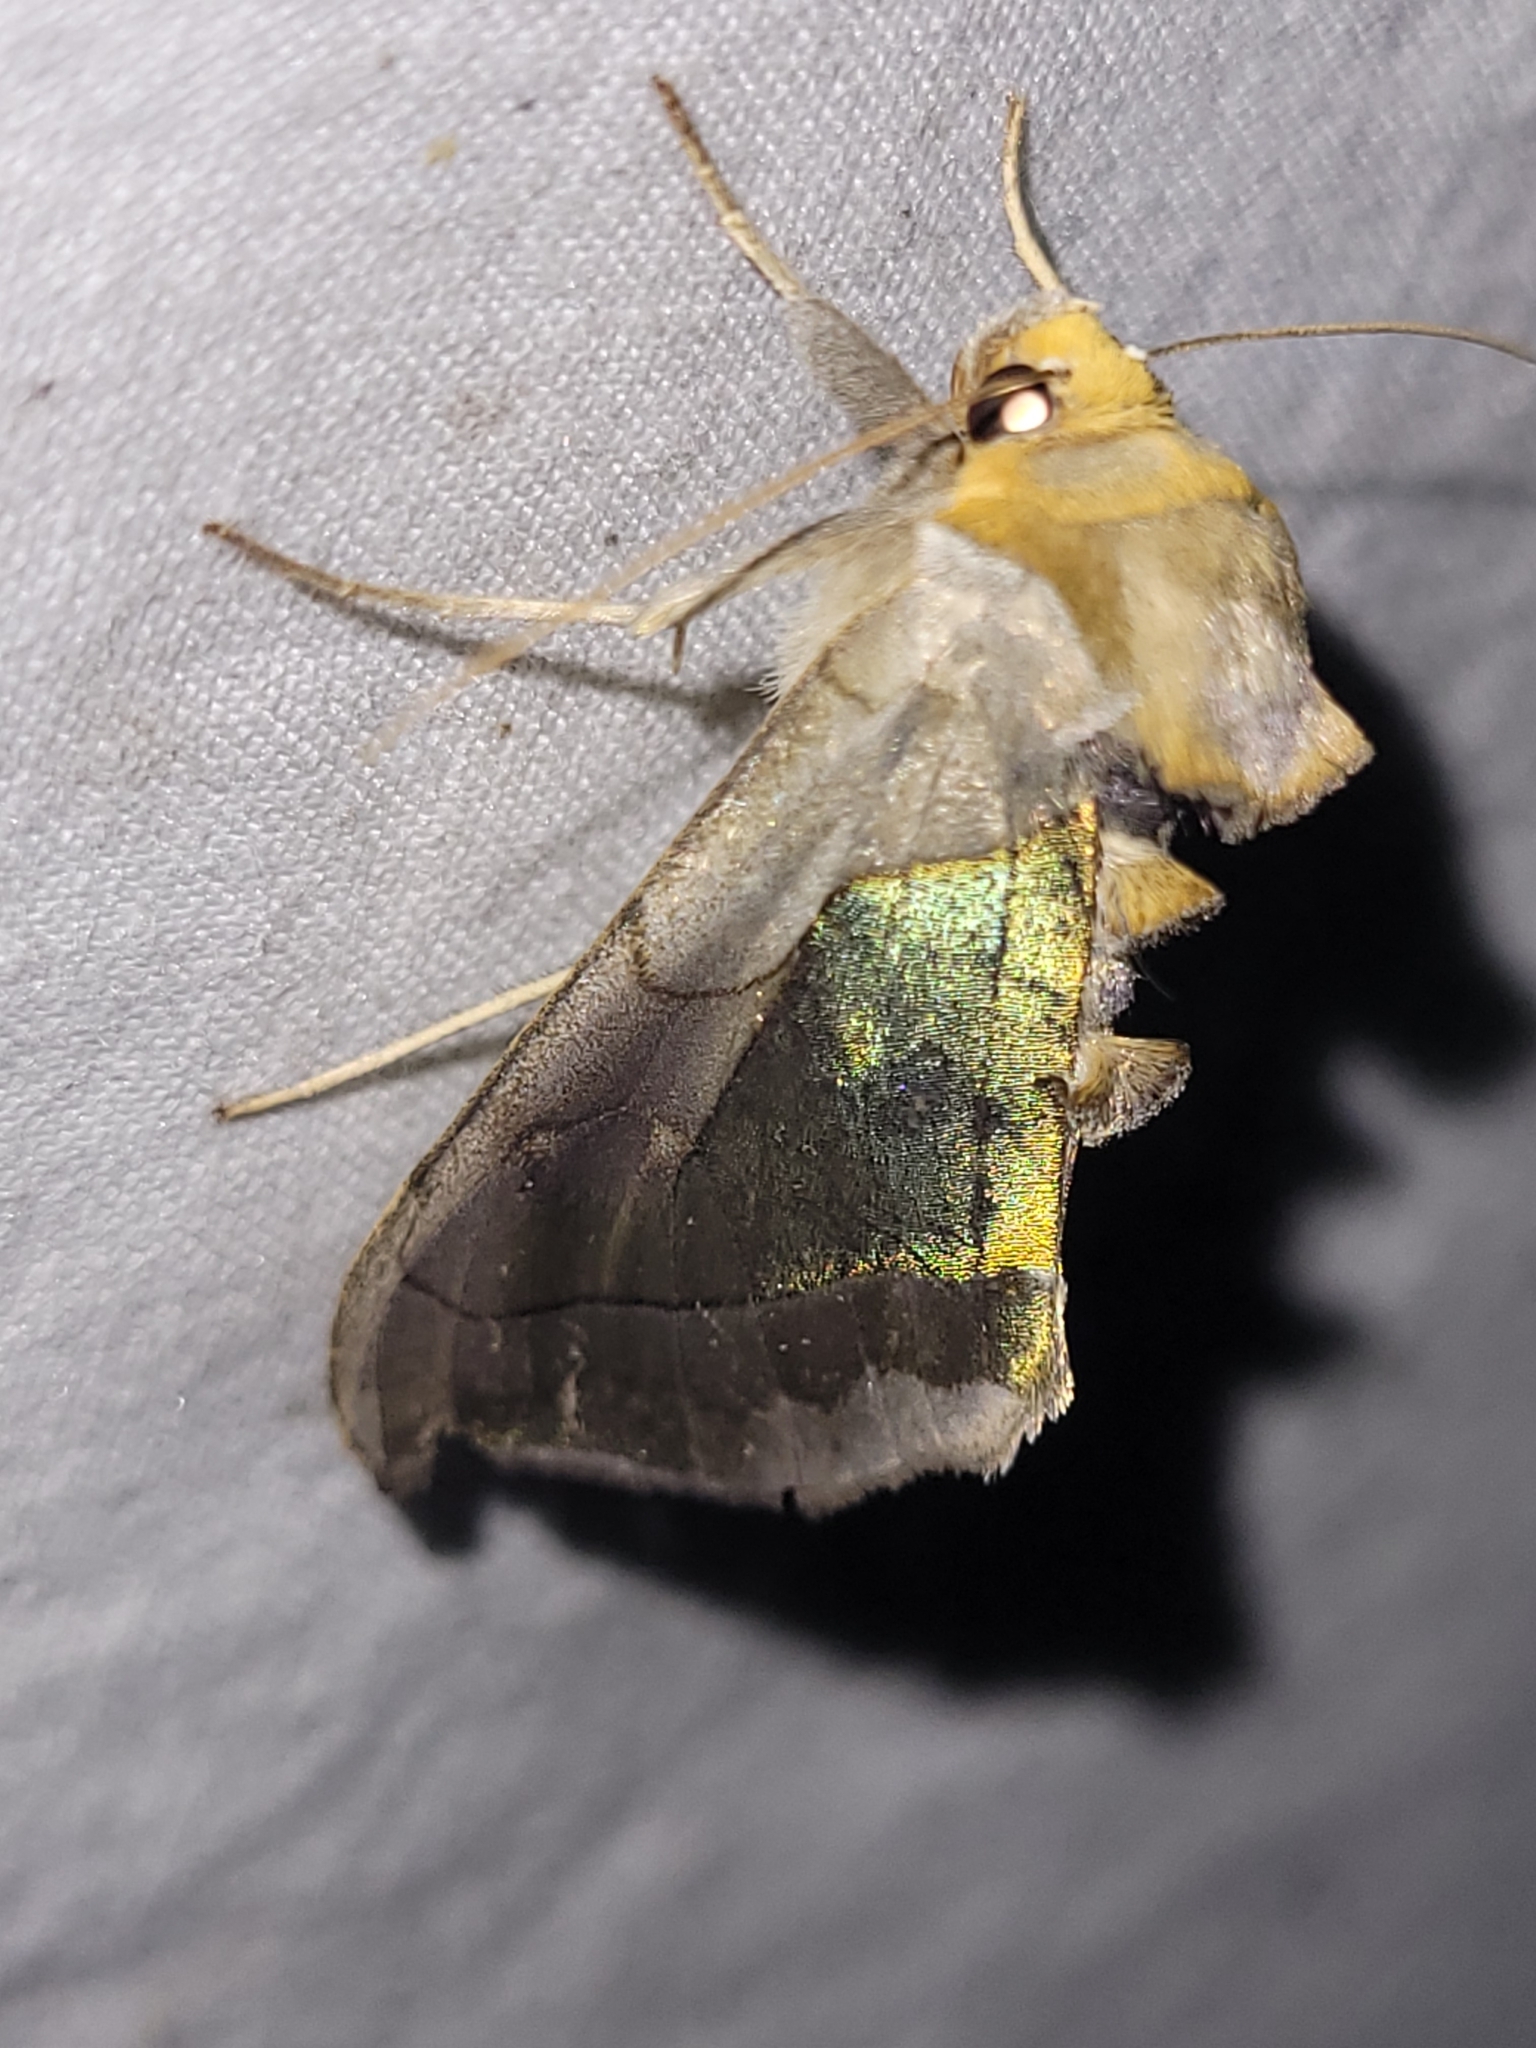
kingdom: Animalia
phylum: Arthropoda
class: Insecta
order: Lepidoptera
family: Noctuidae
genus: Diachrysia
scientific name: Diachrysia balluca
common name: Green-patched looper moth
